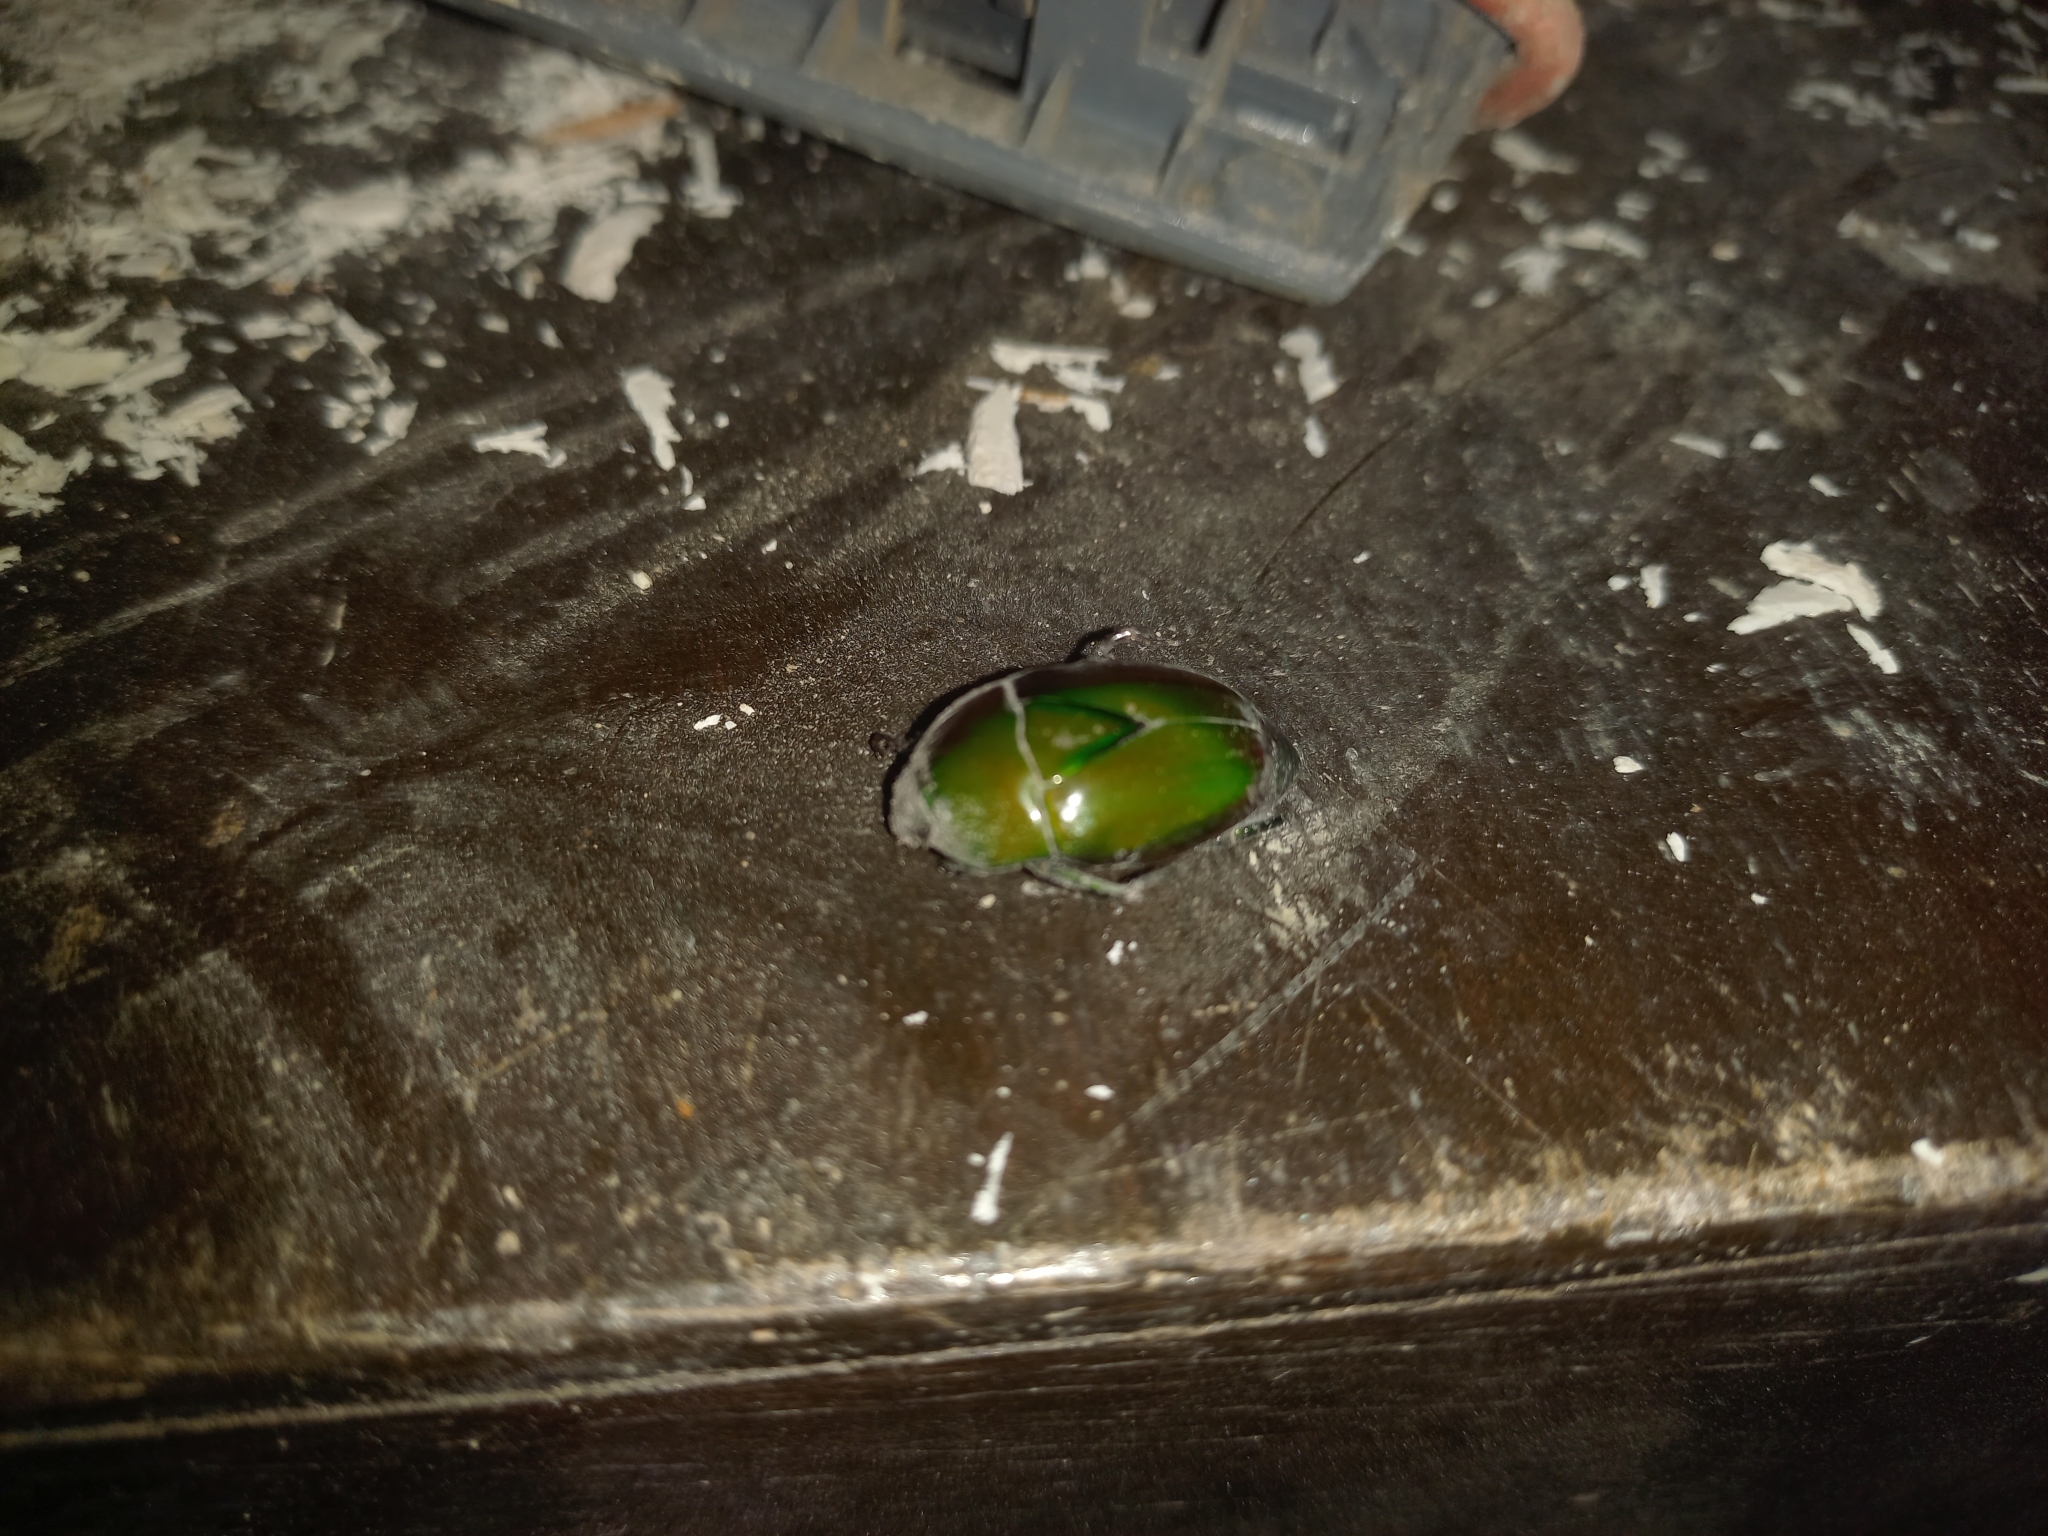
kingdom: Animalia
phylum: Arthropoda
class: Insecta
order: Coleoptera
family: Scarabaeidae
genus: Macraspis
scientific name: Macraspis chrysis
